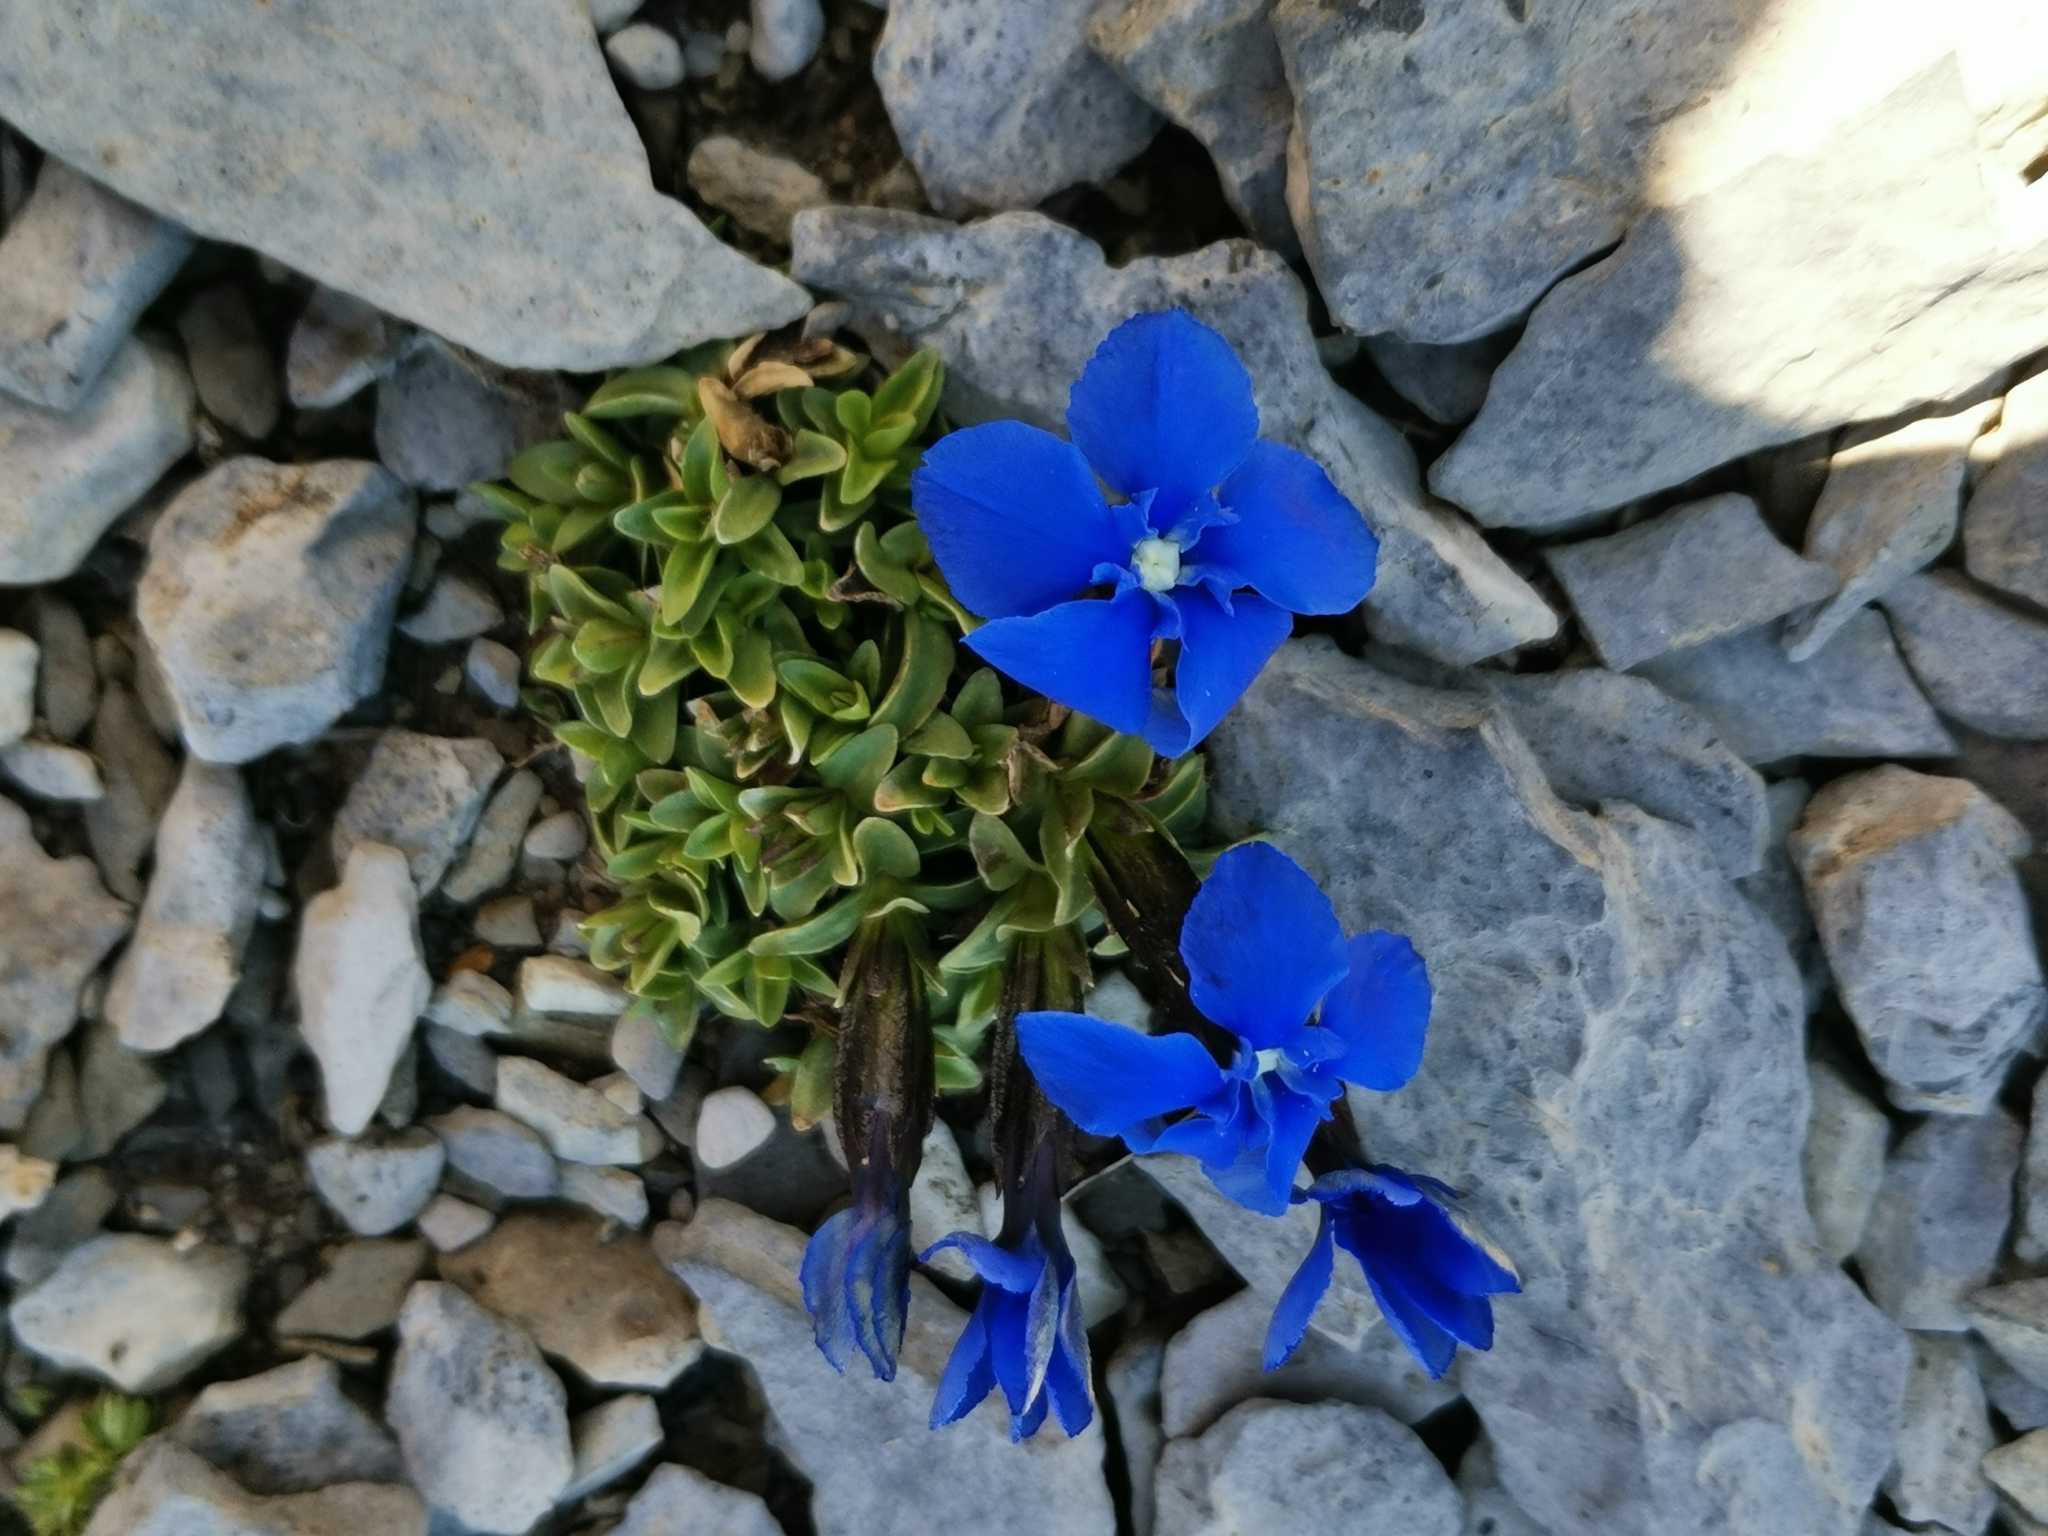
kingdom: Plantae
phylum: Tracheophyta
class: Magnoliopsida
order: Gentianales
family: Gentianaceae
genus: Gentiana
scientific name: Gentiana orbicularis
